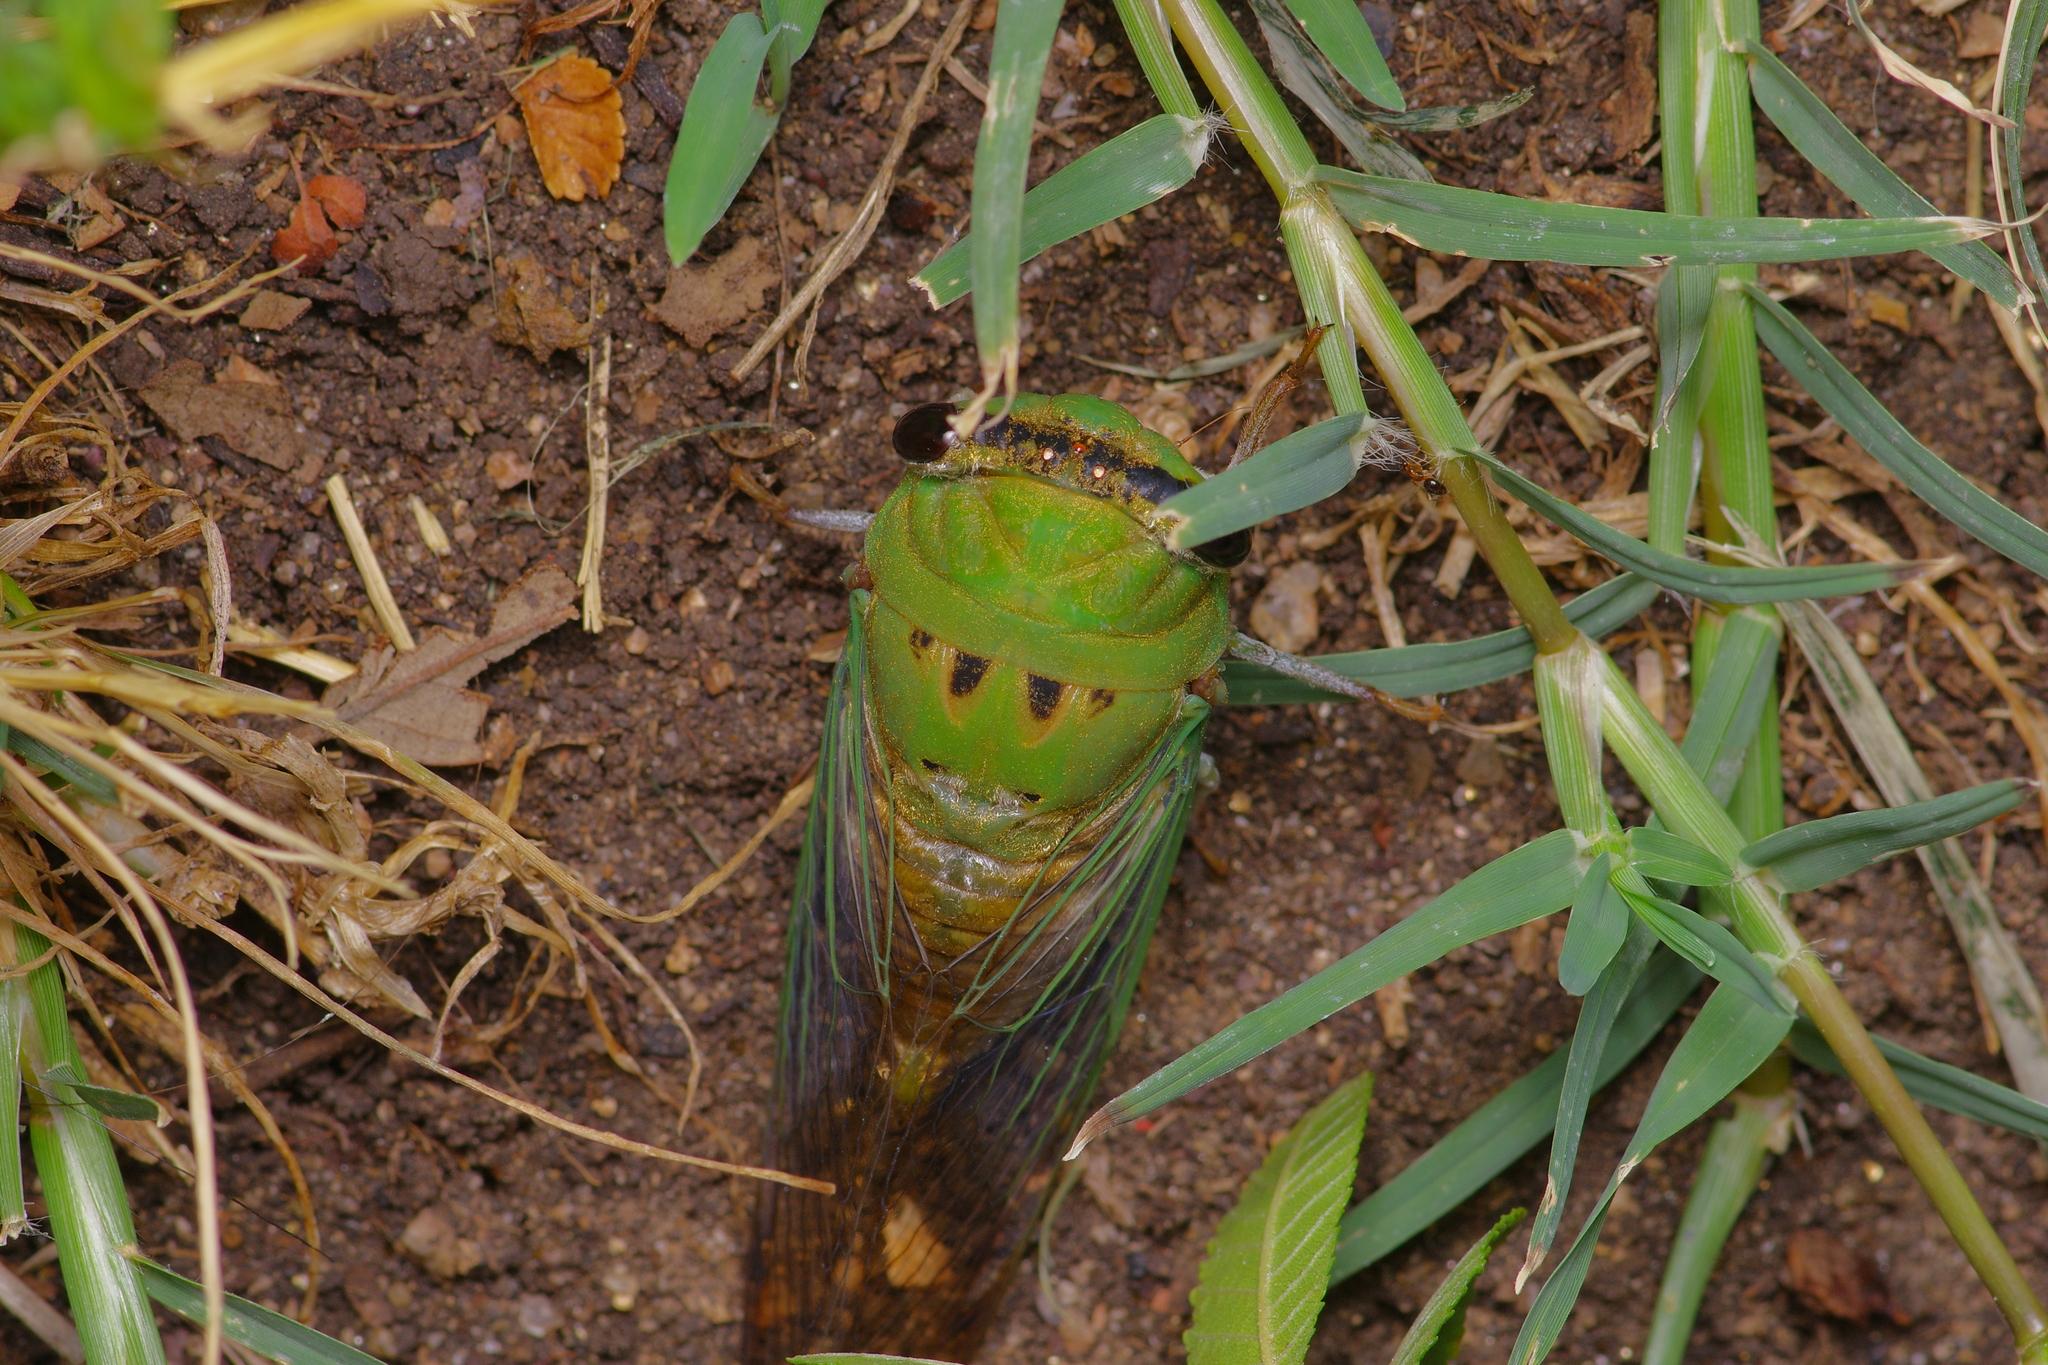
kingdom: Animalia
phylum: Arthropoda
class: Insecta
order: Hemiptera
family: Cicadidae
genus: Neotibicen
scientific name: Neotibicen superbus
